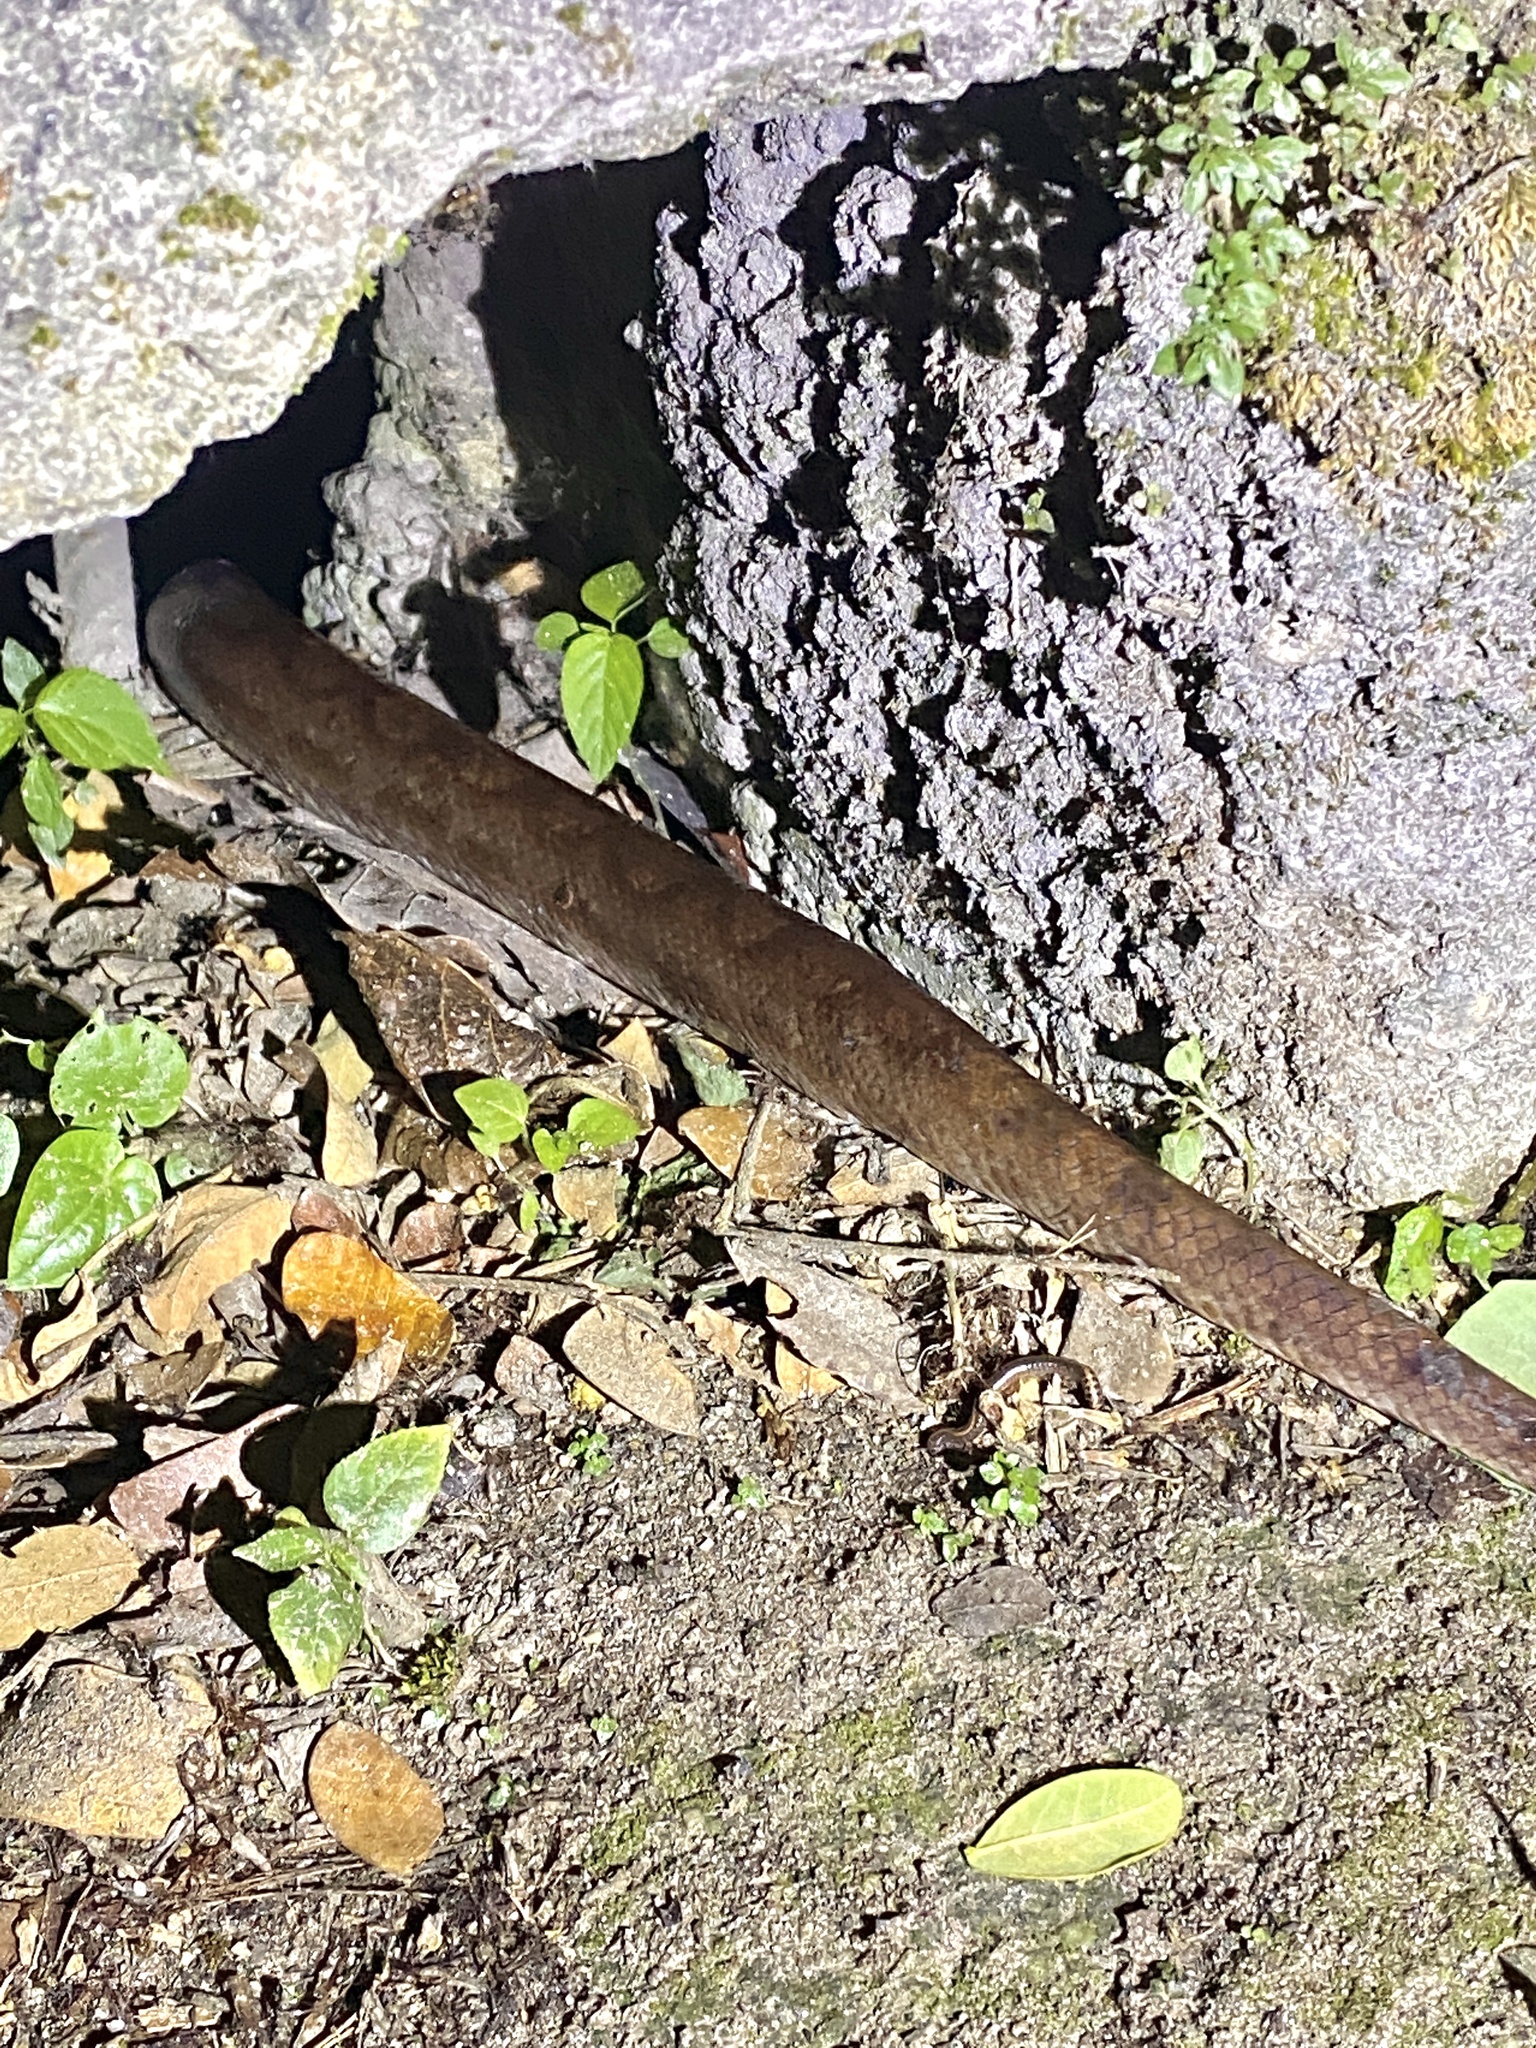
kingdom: Animalia
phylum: Chordata
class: Squamata
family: Boidae
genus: Epicrates
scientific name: Epicrates maurus
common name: Brown rainbow boa
